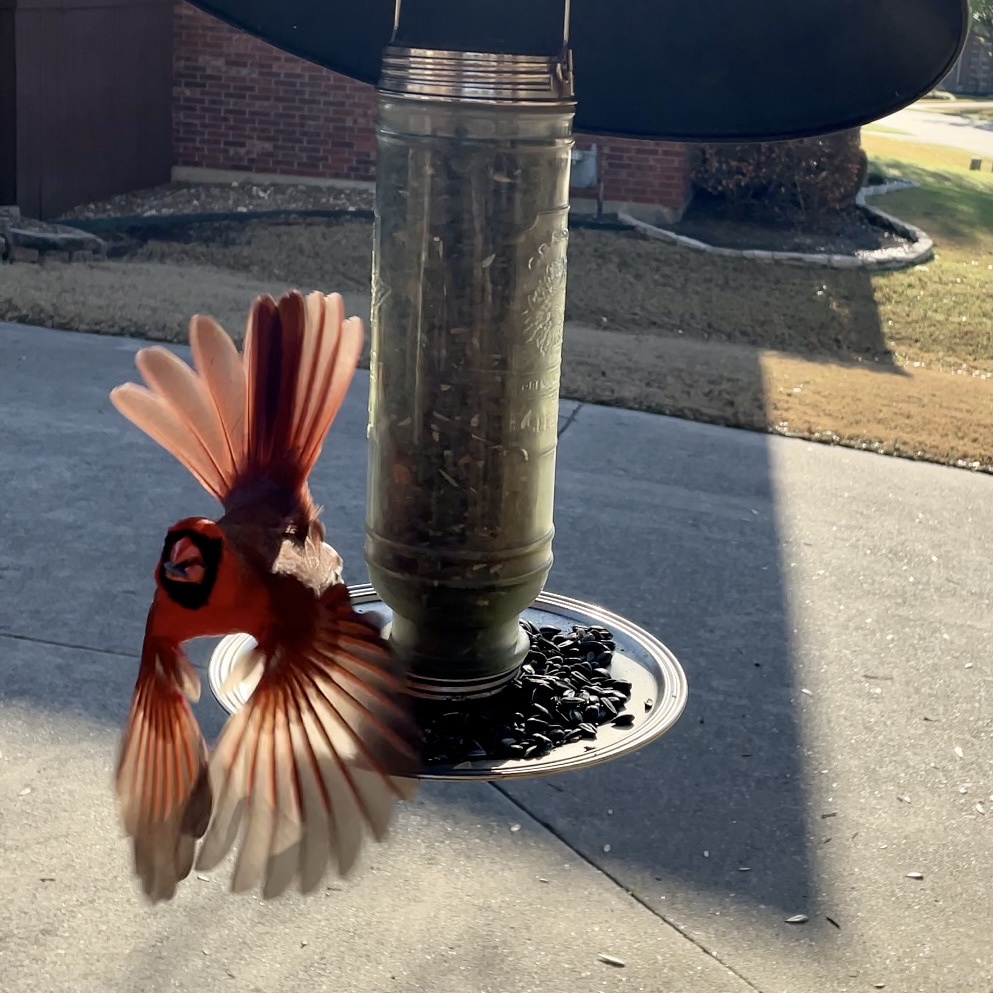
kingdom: Animalia
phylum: Chordata
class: Aves
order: Passeriformes
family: Cardinalidae
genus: Cardinalis
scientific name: Cardinalis cardinalis
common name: Northern cardinal
